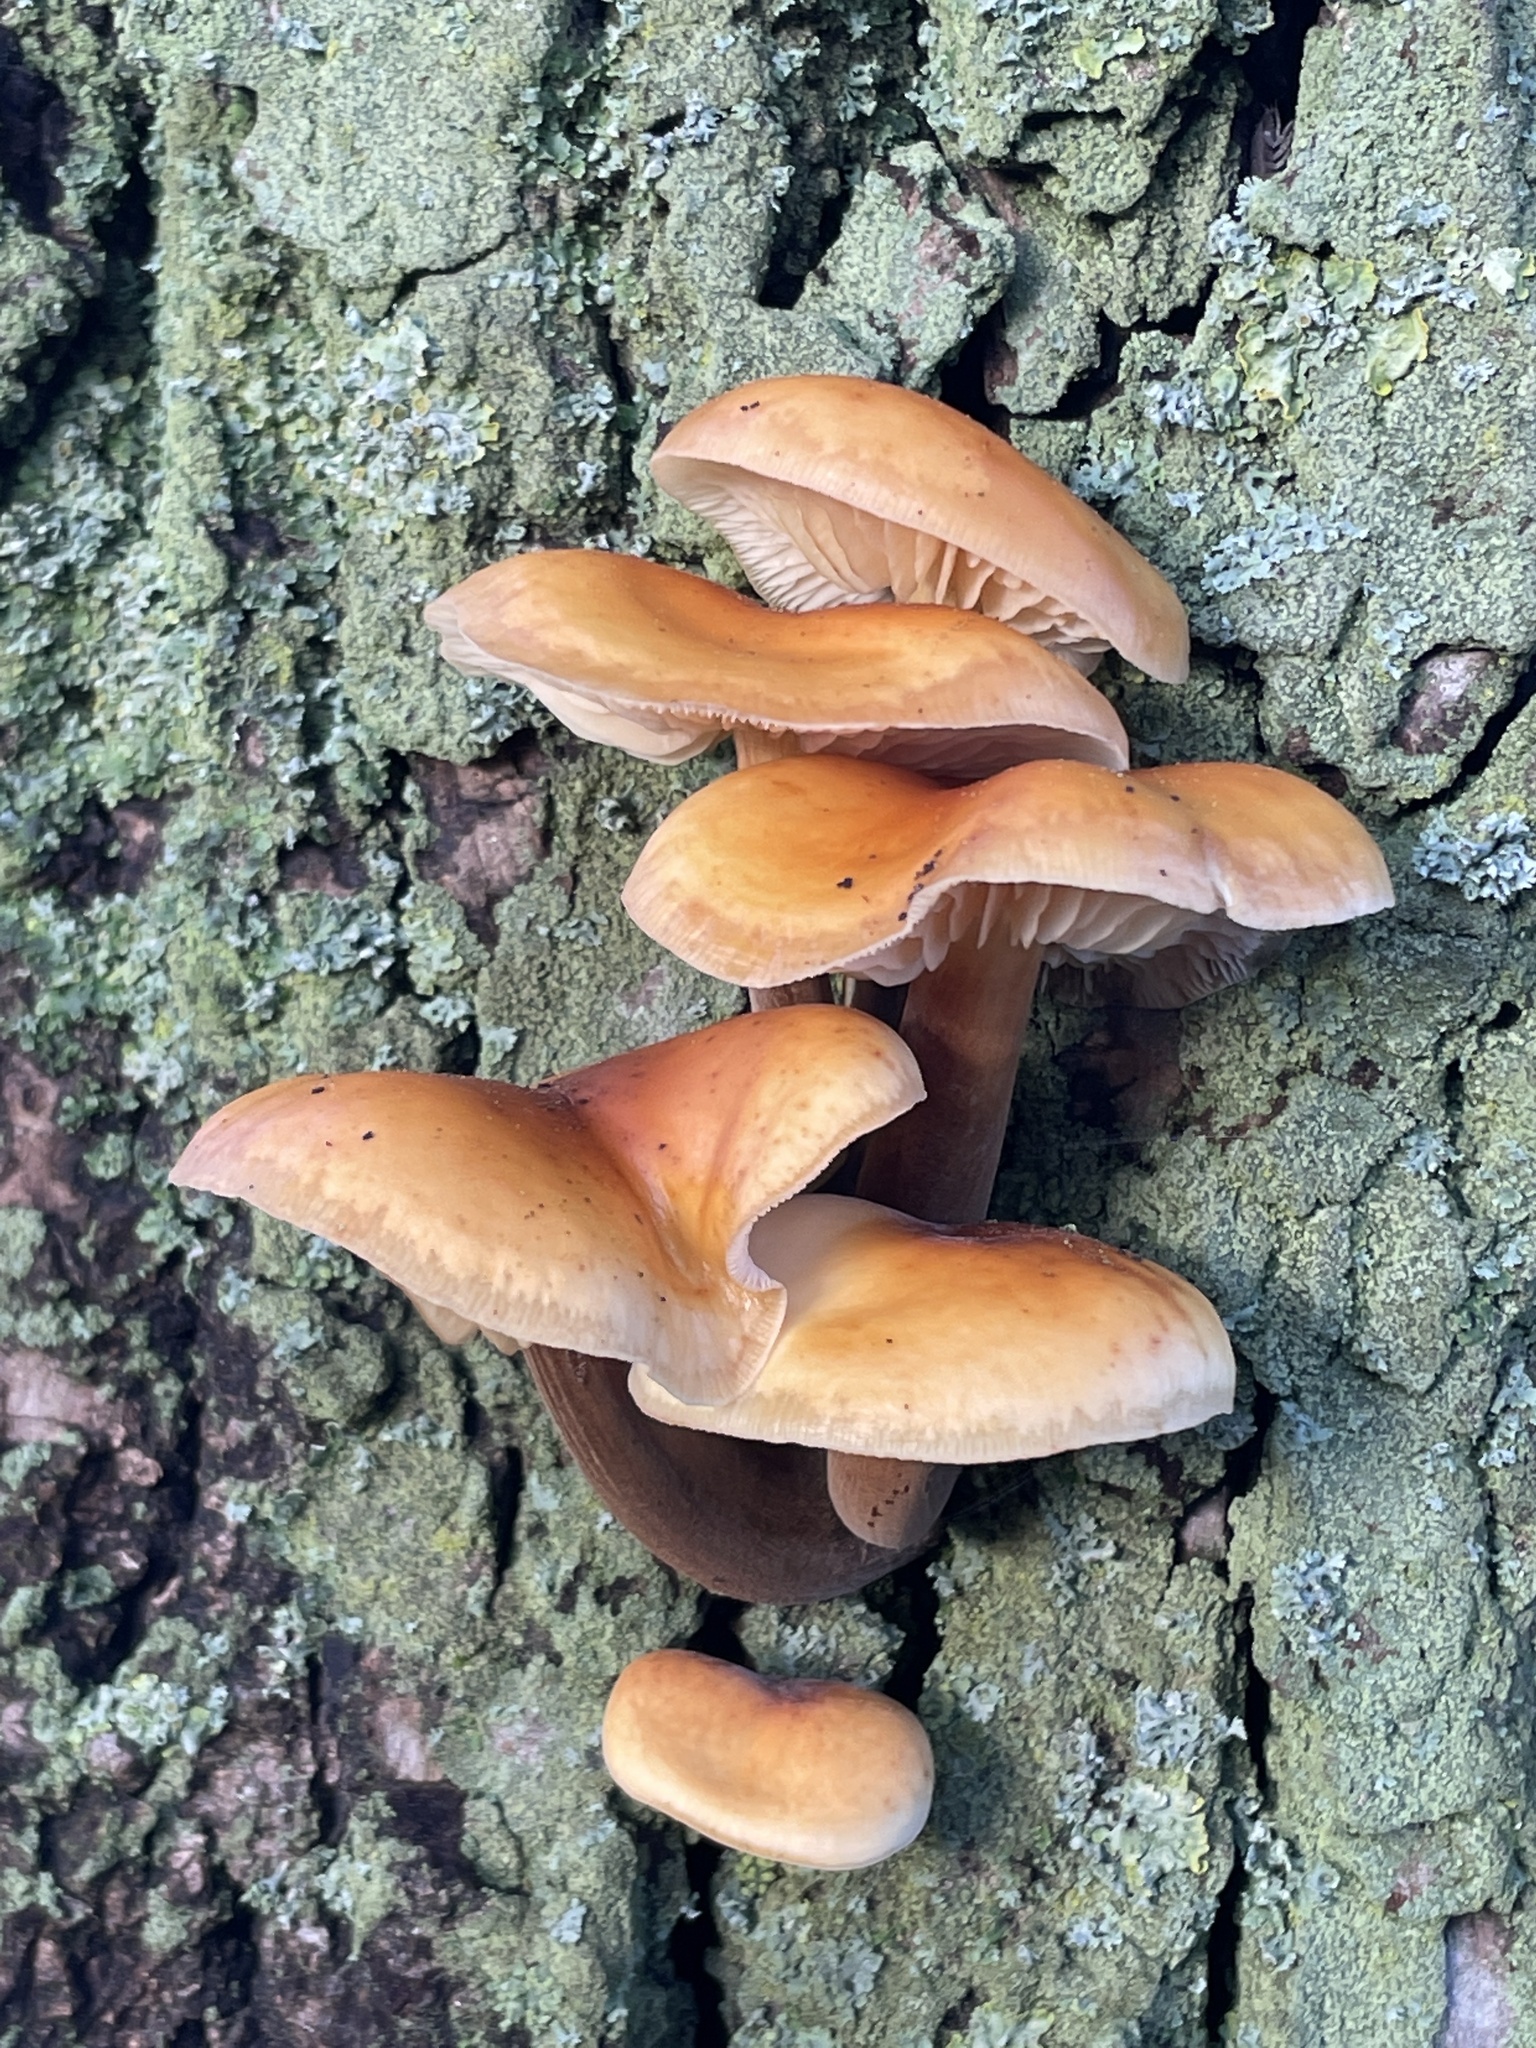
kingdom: Fungi
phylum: Basidiomycota
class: Agaricomycetes
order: Agaricales
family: Physalacriaceae
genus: Flammulina
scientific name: Flammulina
